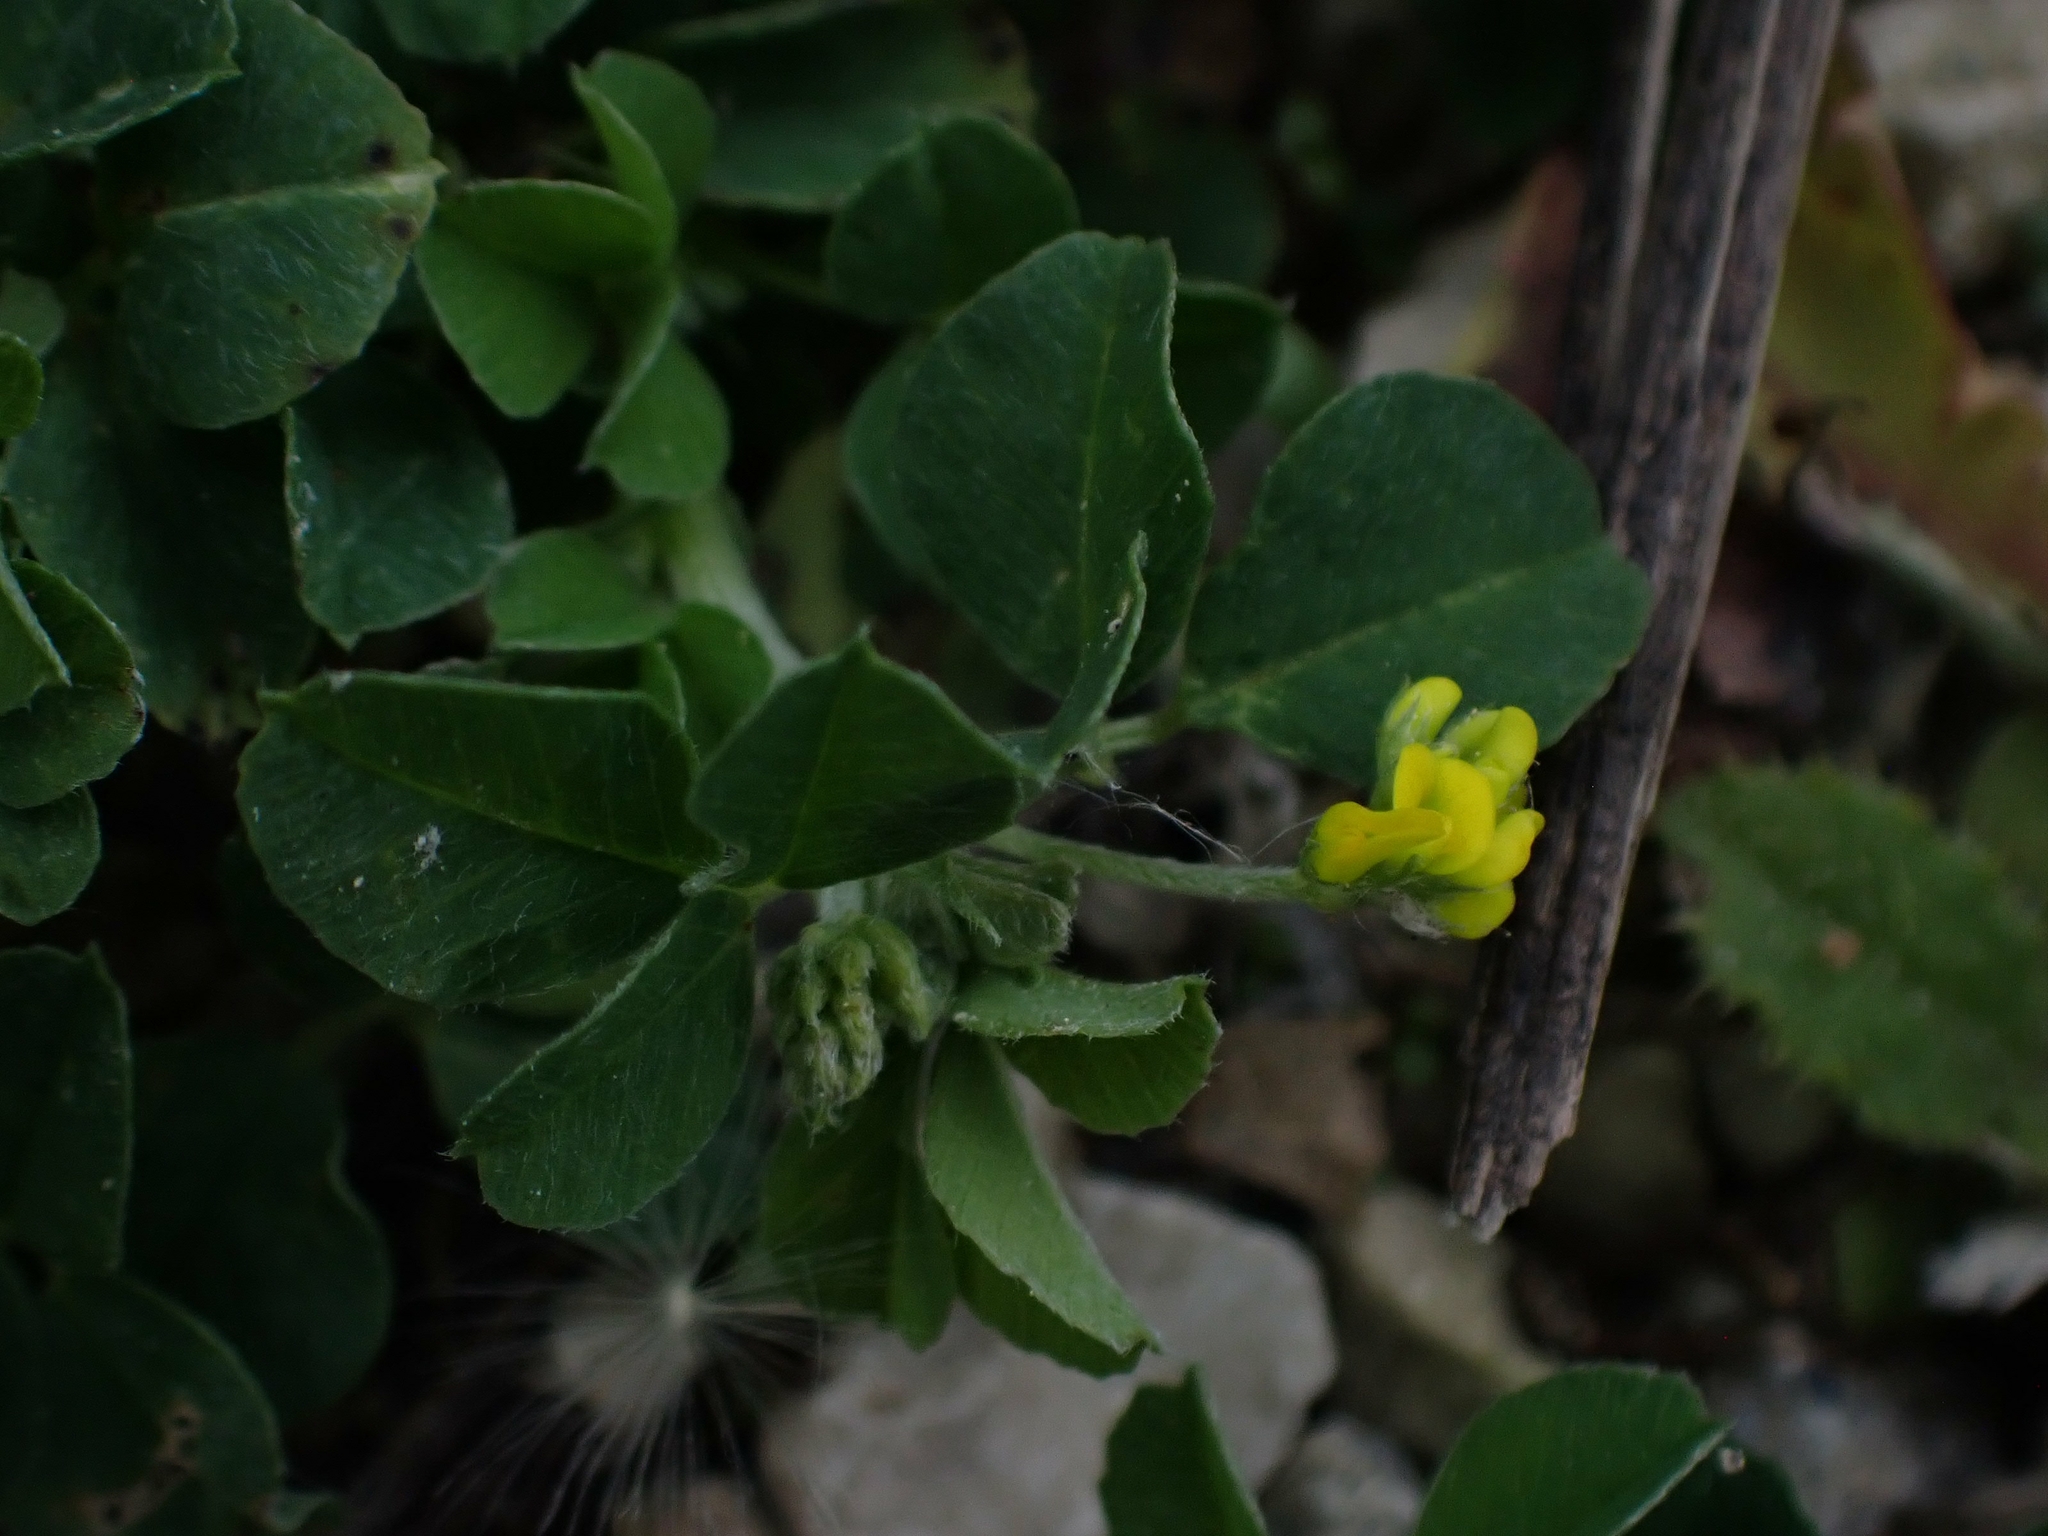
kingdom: Plantae
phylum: Tracheophyta
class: Magnoliopsida
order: Fabales
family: Fabaceae
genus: Medicago
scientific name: Medicago lupulina
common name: Black medick
